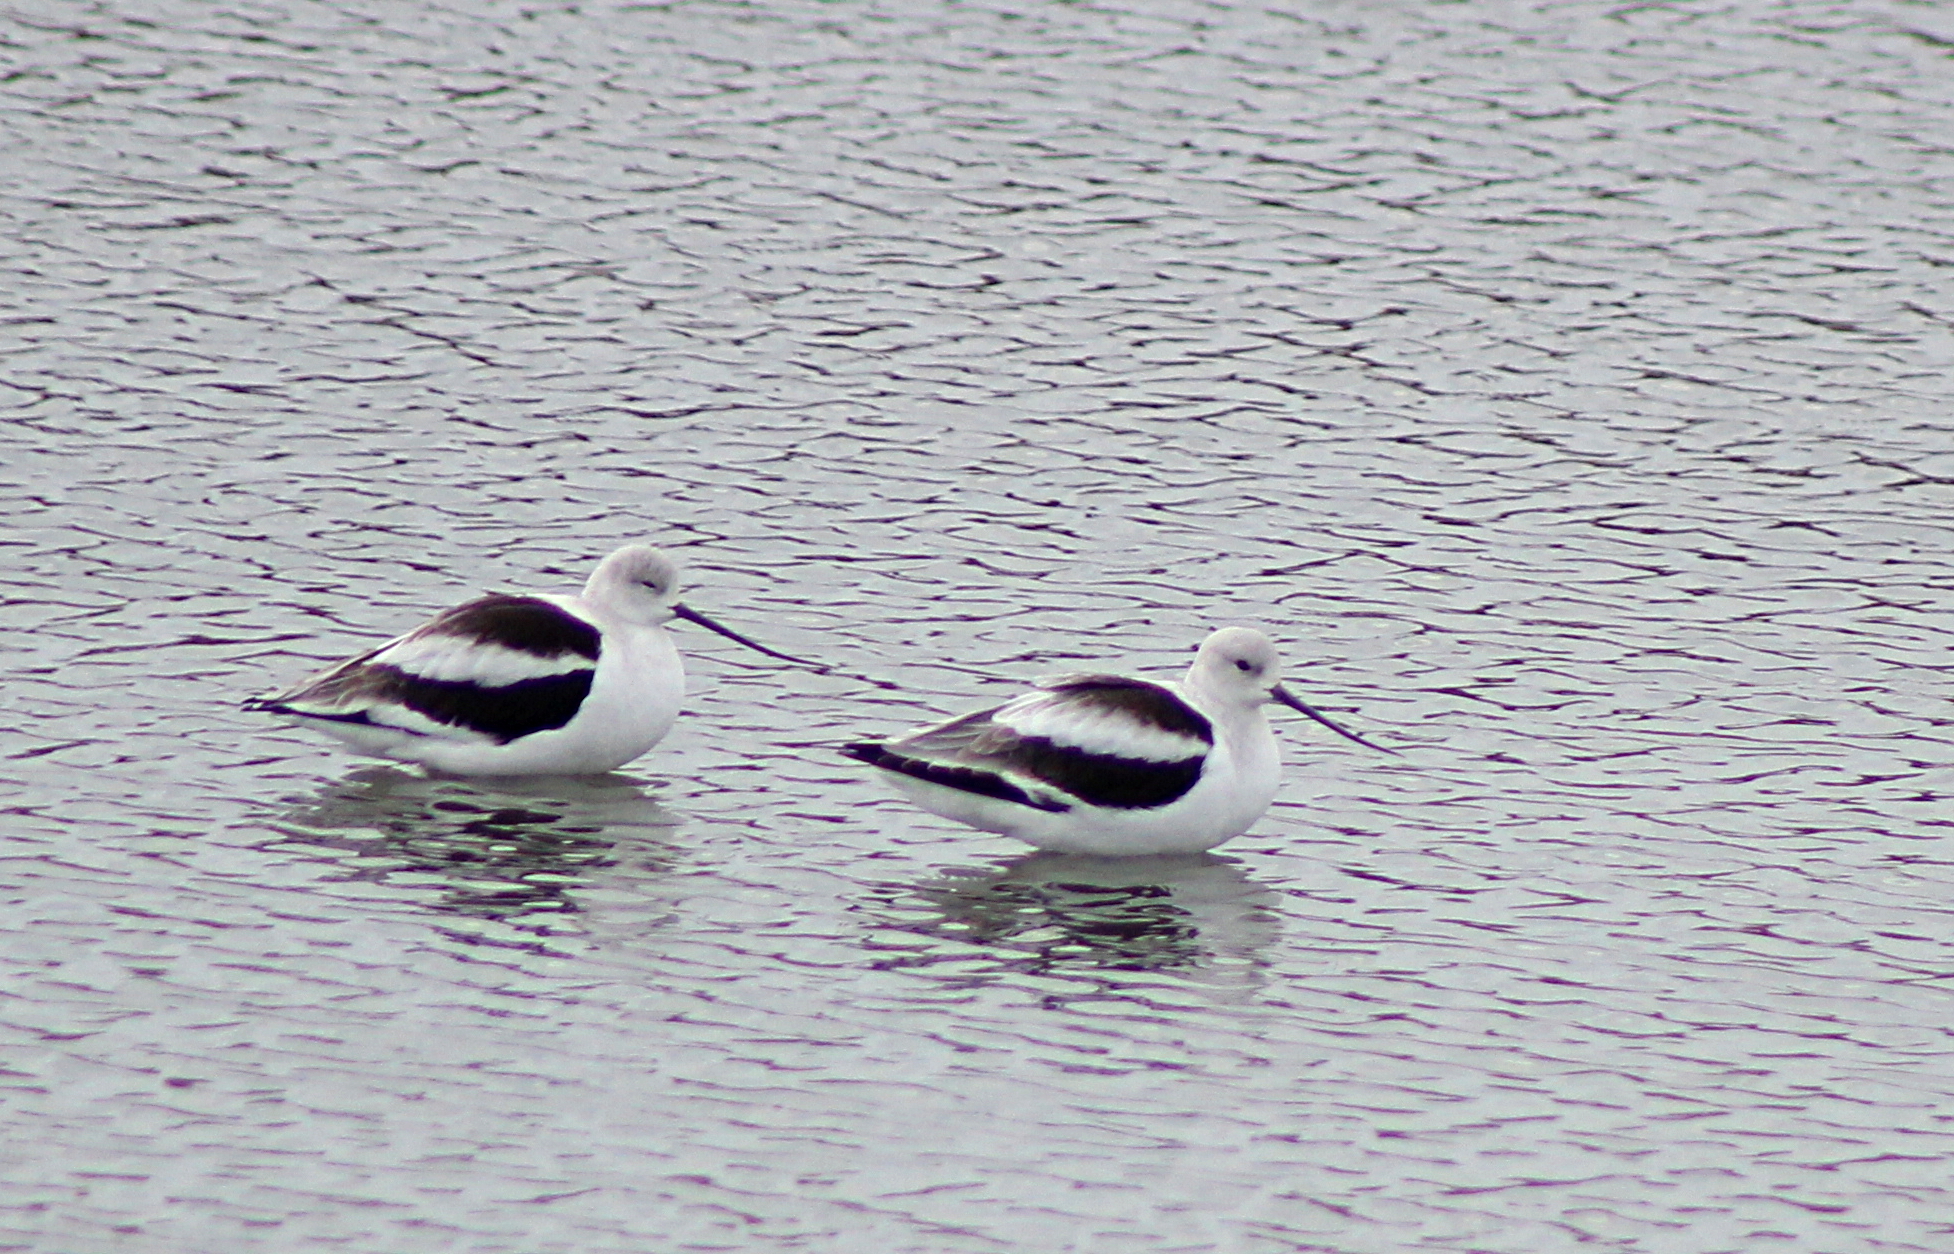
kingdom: Animalia
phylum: Chordata
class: Aves
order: Charadriiformes
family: Recurvirostridae
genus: Recurvirostra
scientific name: Recurvirostra americana
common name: American avocet
